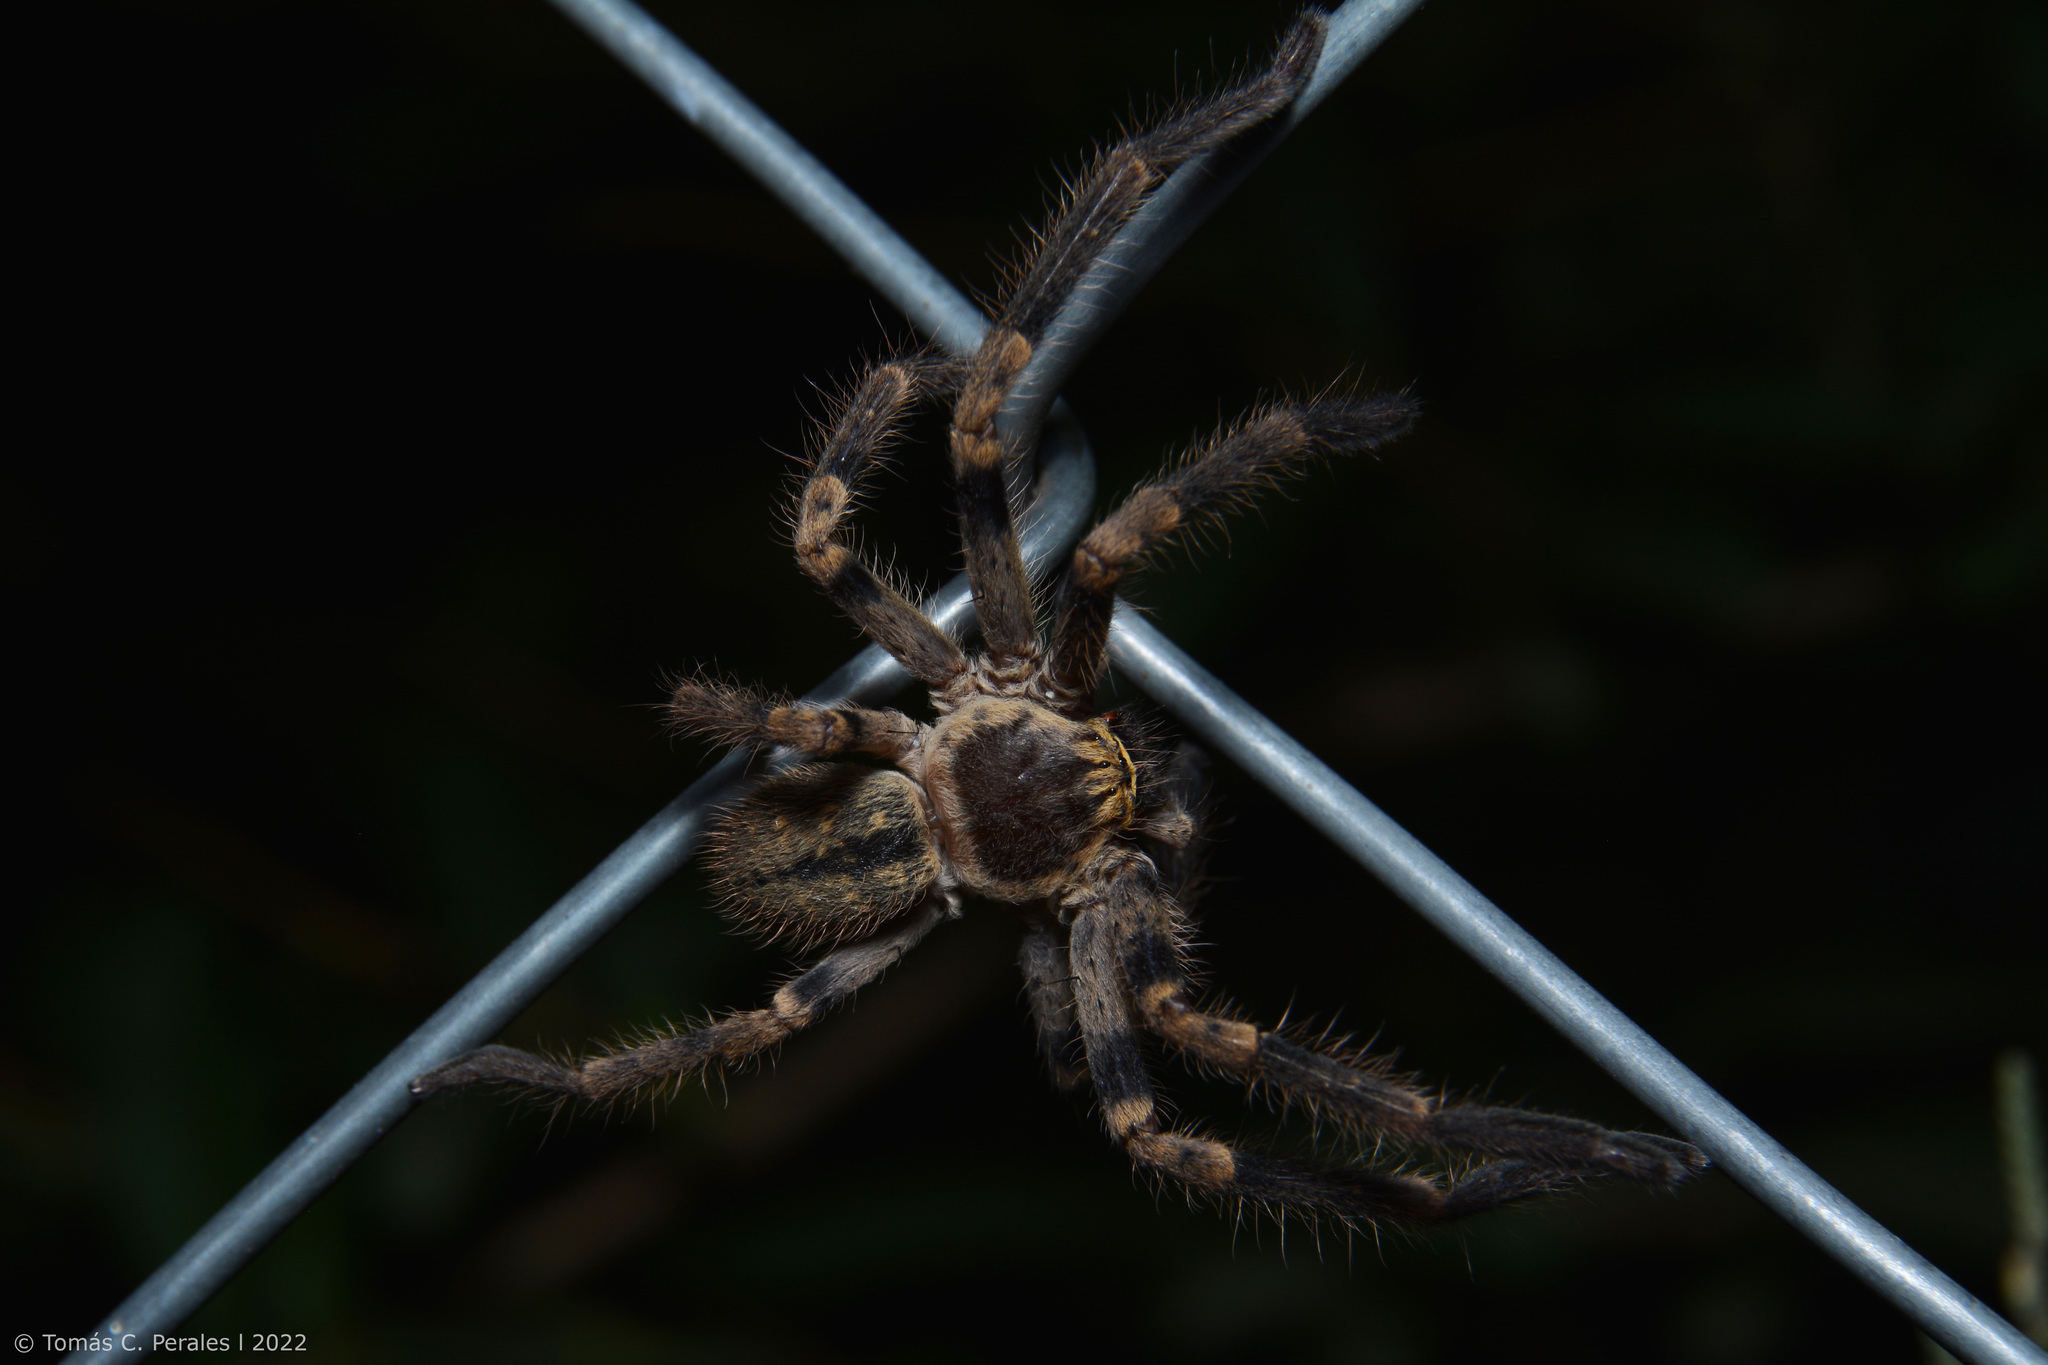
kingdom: Animalia
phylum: Arthropoda
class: Arachnida
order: Araneae
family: Sparassidae
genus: Polybetes
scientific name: Polybetes pythagoricus
